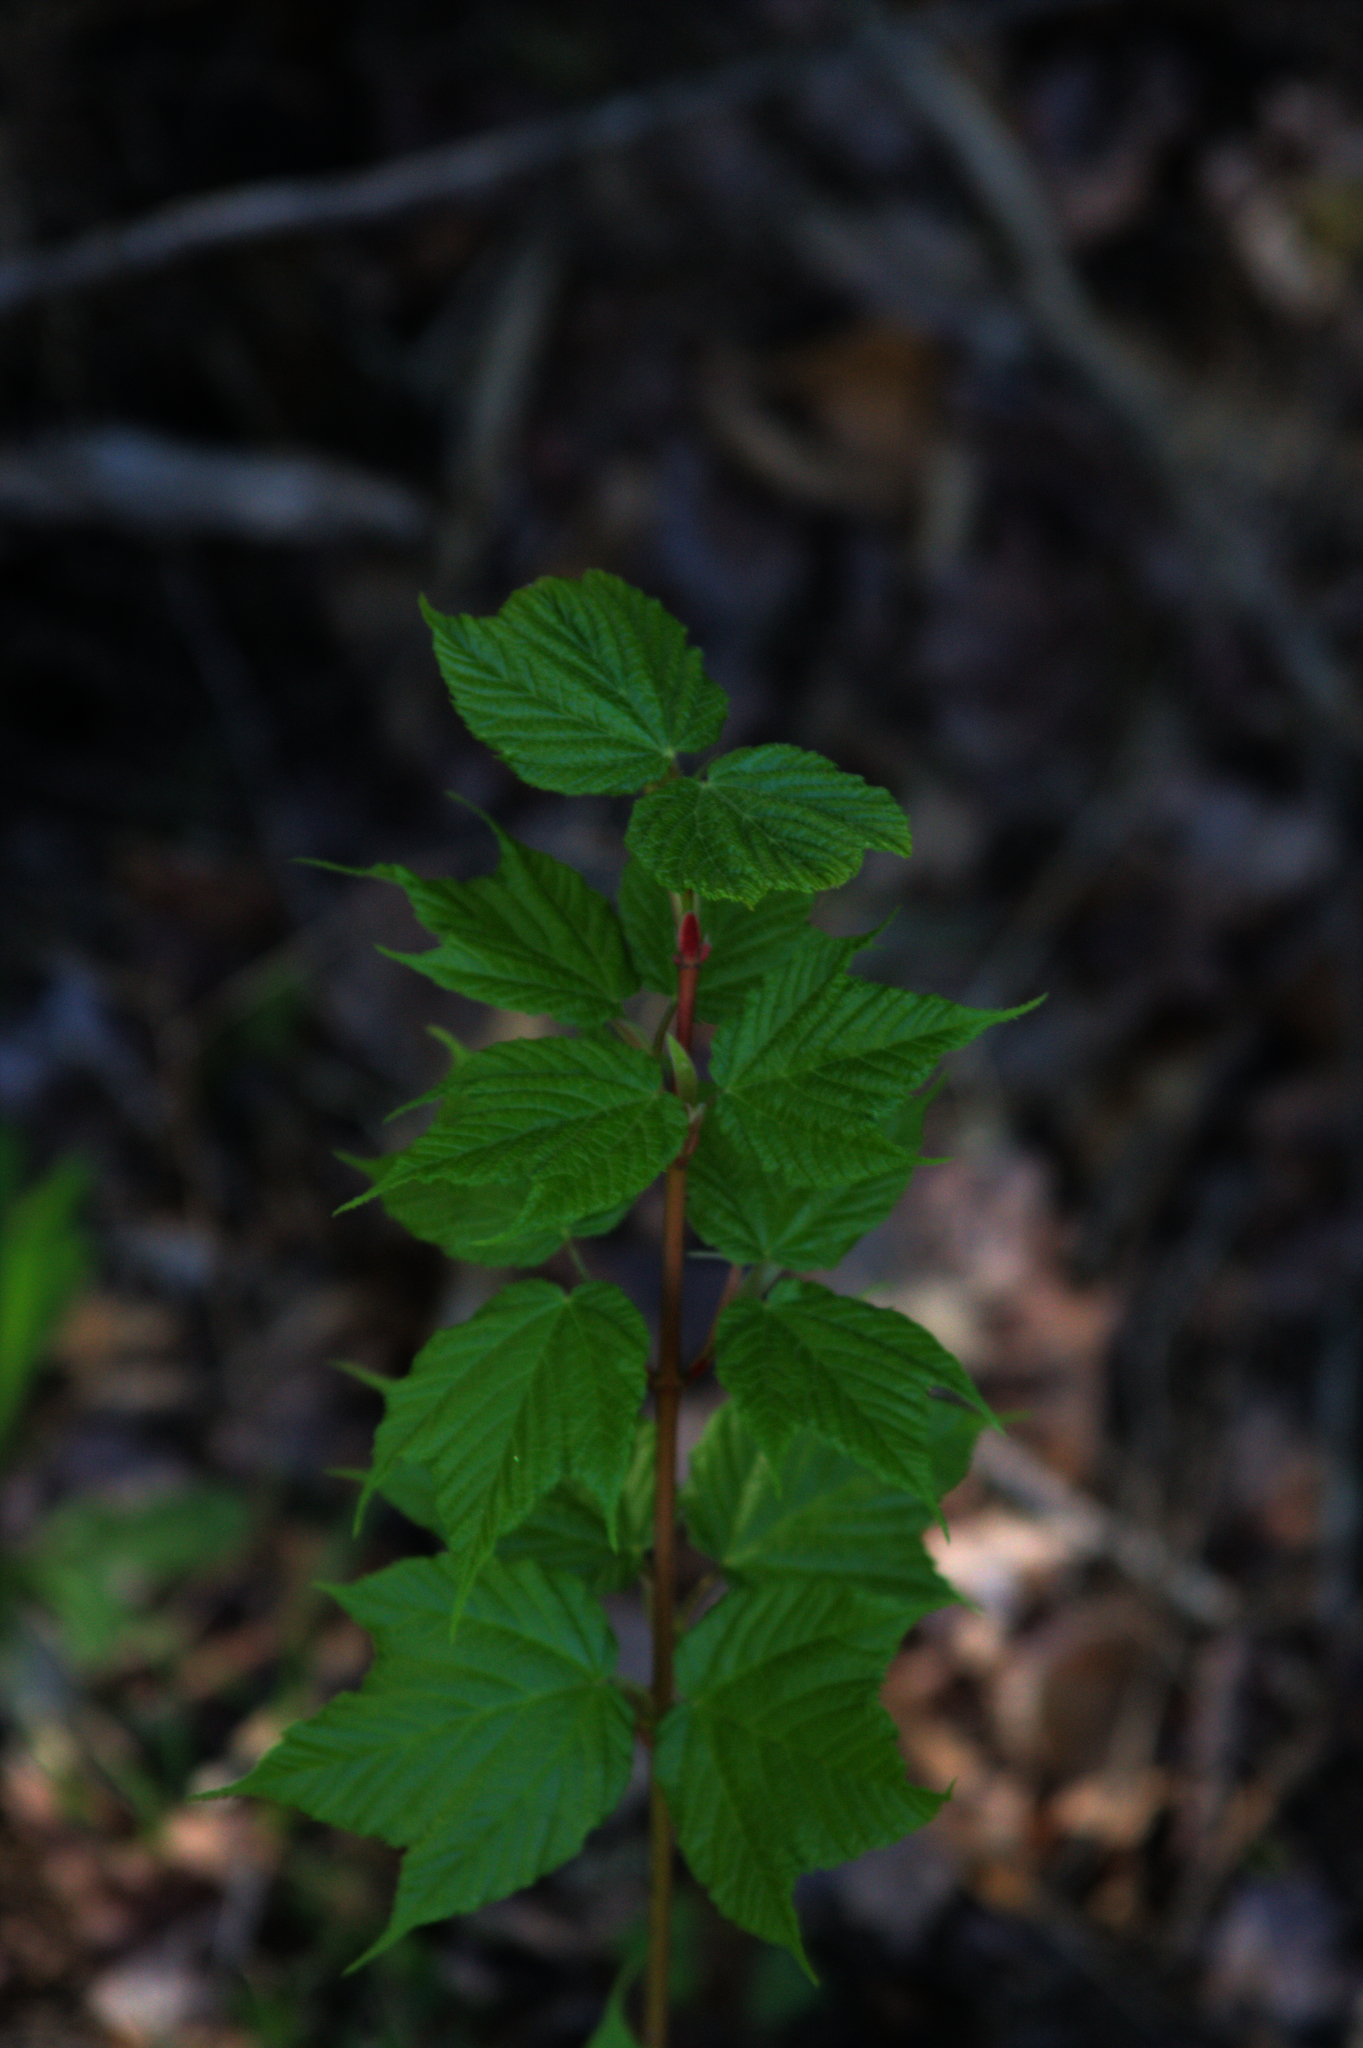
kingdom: Plantae
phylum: Tracheophyta
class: Magnoliopsida
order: Sapindales
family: Sapindaceae
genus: Acer
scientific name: Acer pensylvanicum
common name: Moosewood
